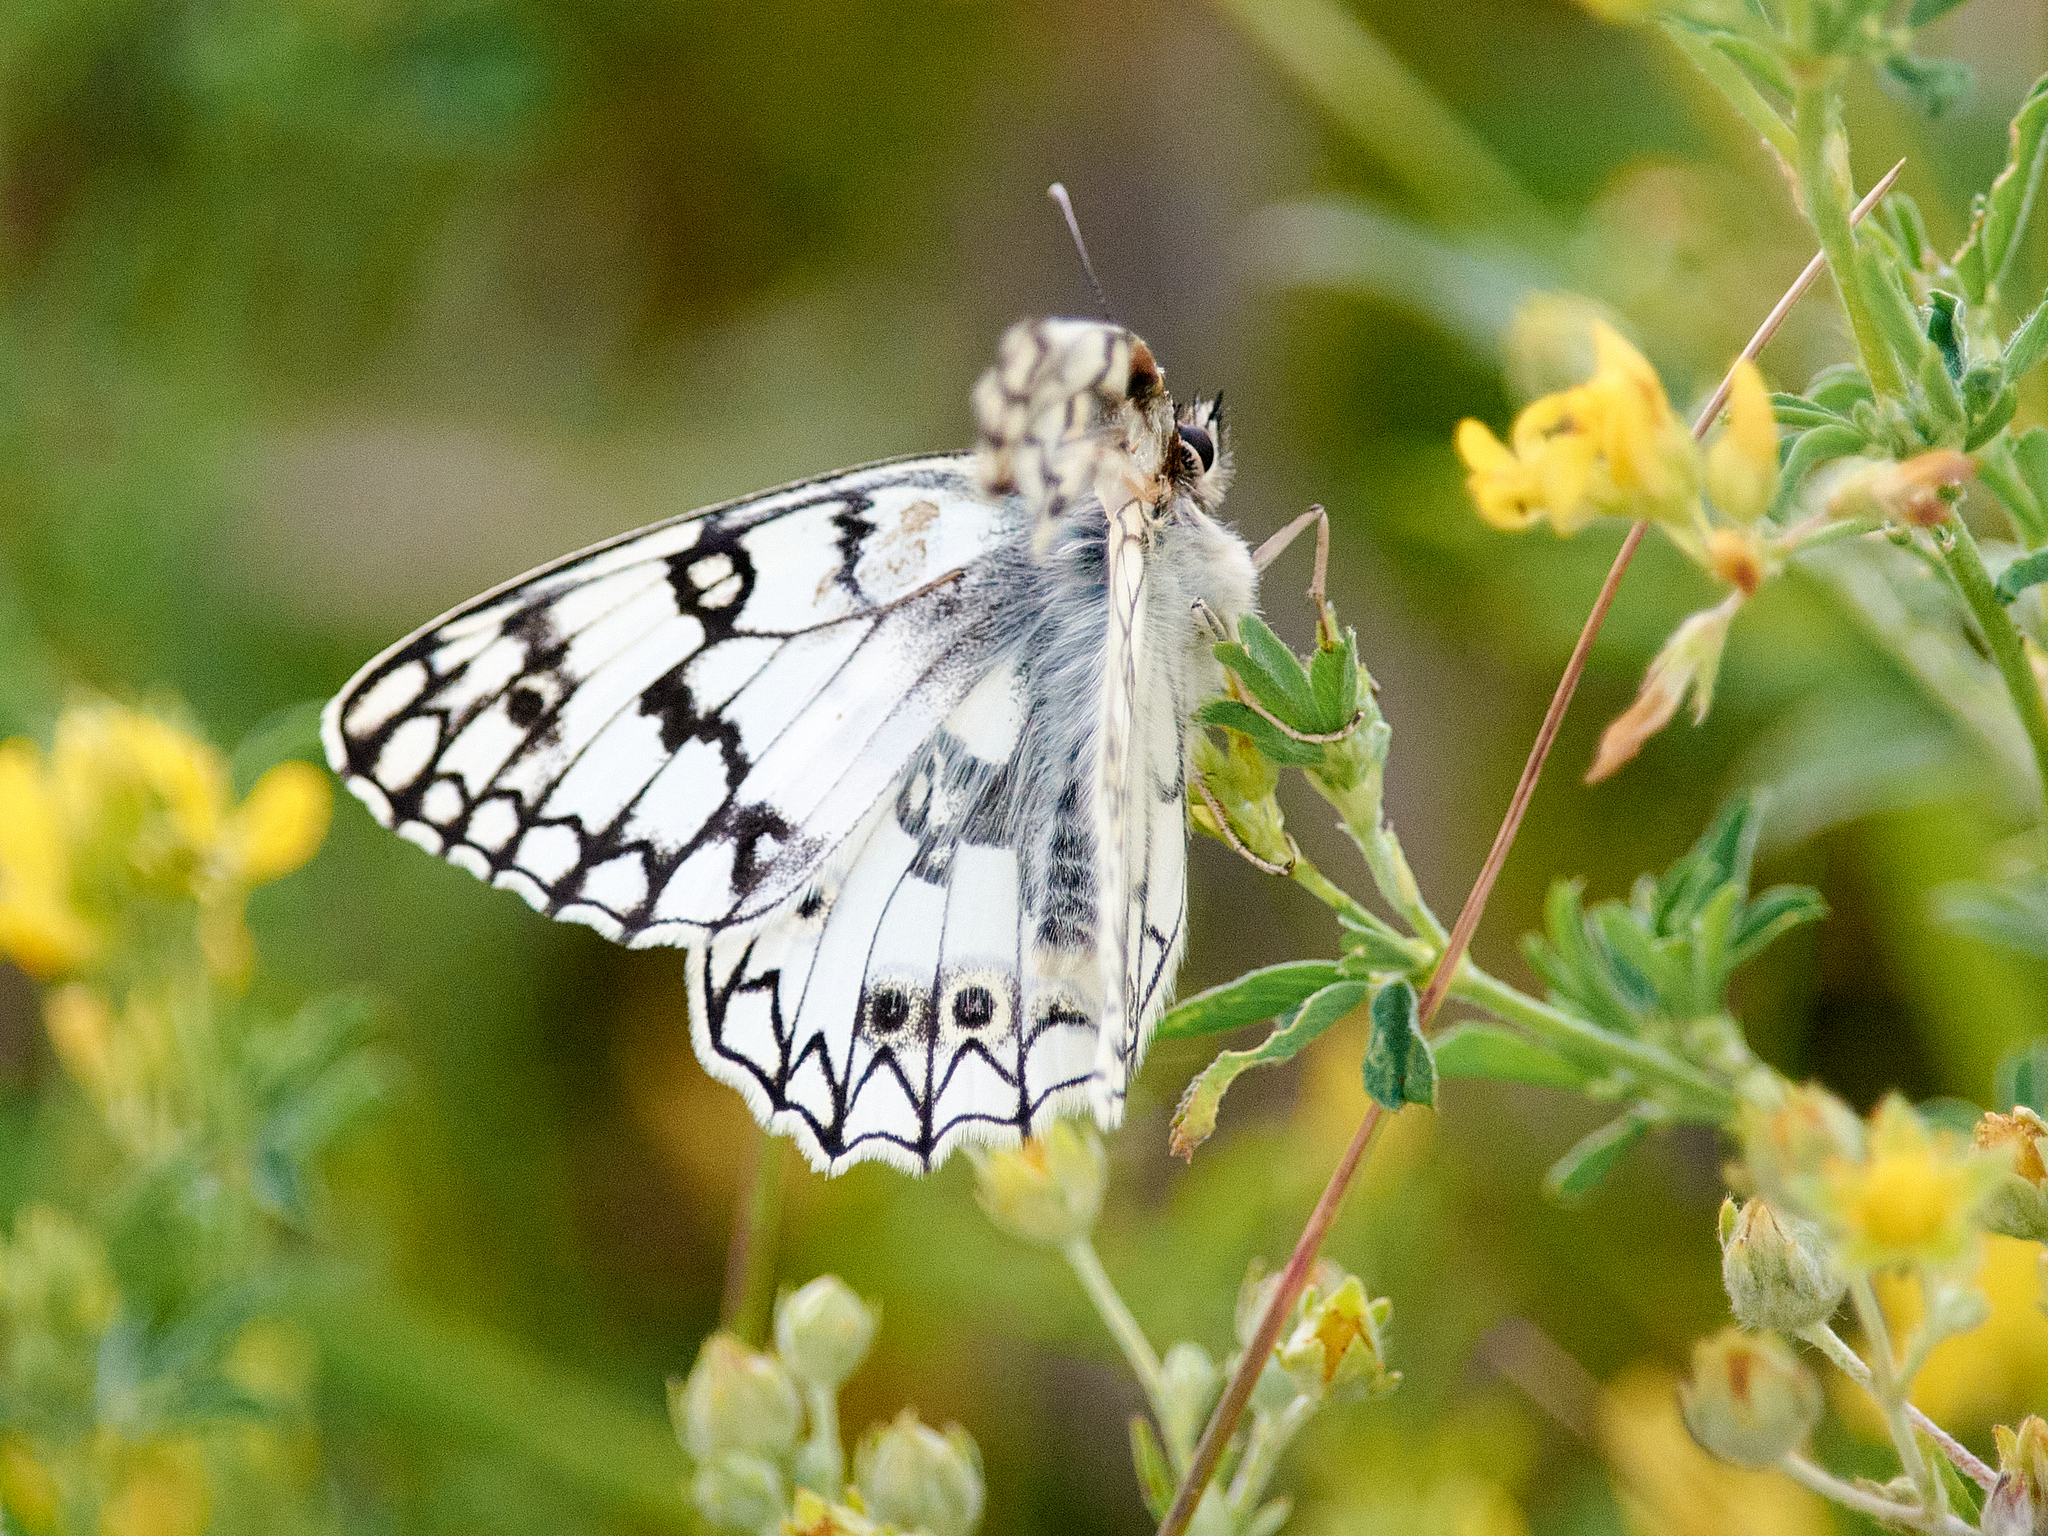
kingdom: Animalia
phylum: Arthropoda
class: Insecta
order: Lepidoptera
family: Nymphalidae
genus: Melanargia
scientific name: Melanargia japygia
